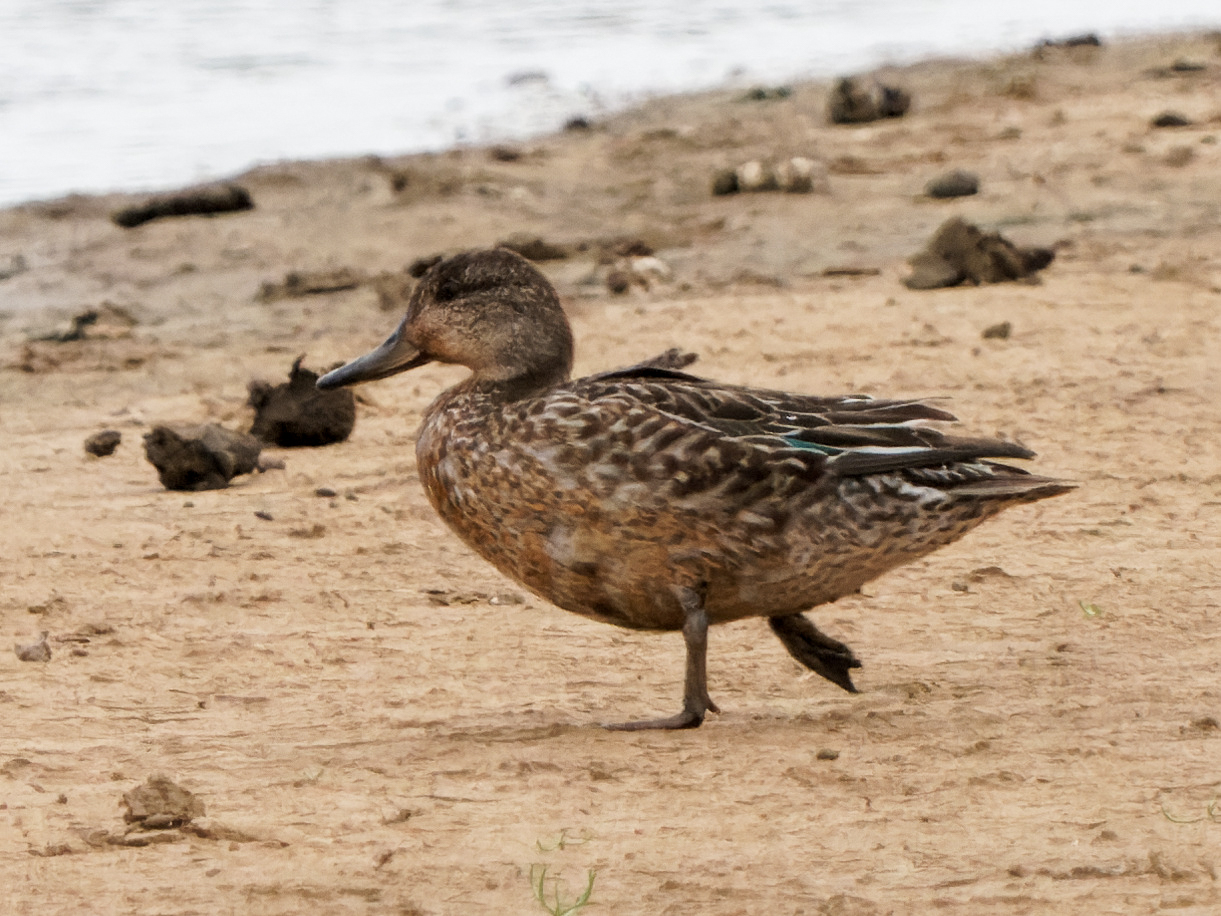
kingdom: Animalia
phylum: Chordata
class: Aves
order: Anseriformes
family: Anatidae
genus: Anas
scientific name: Anas crecca
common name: Eurasian teal
